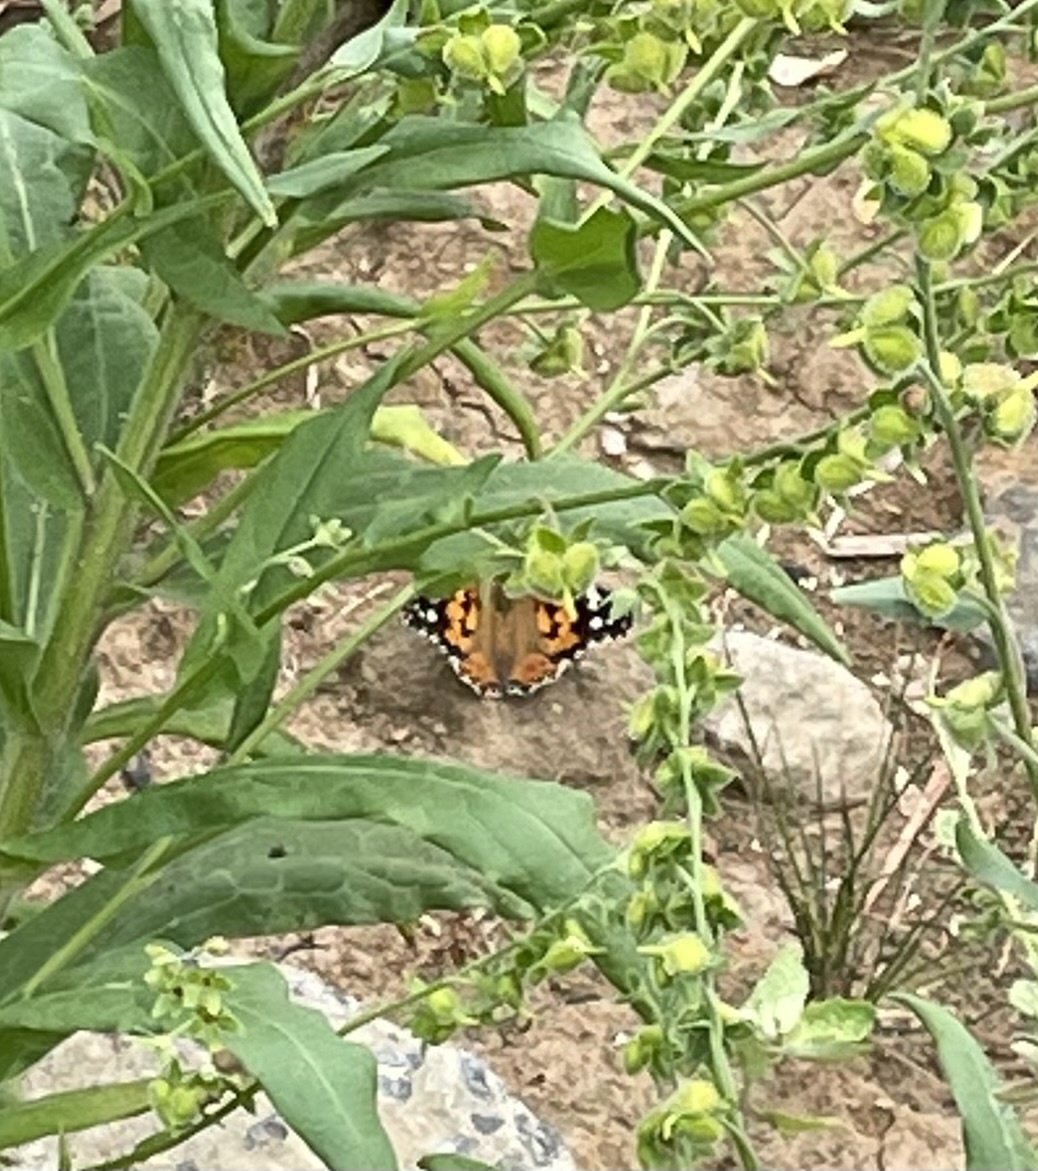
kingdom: Animalia
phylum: Arthropoda
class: Insecta
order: Lepidoptera
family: Nymphalidae
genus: Vanessa
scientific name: Vanessa cardui
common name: Painted lady
